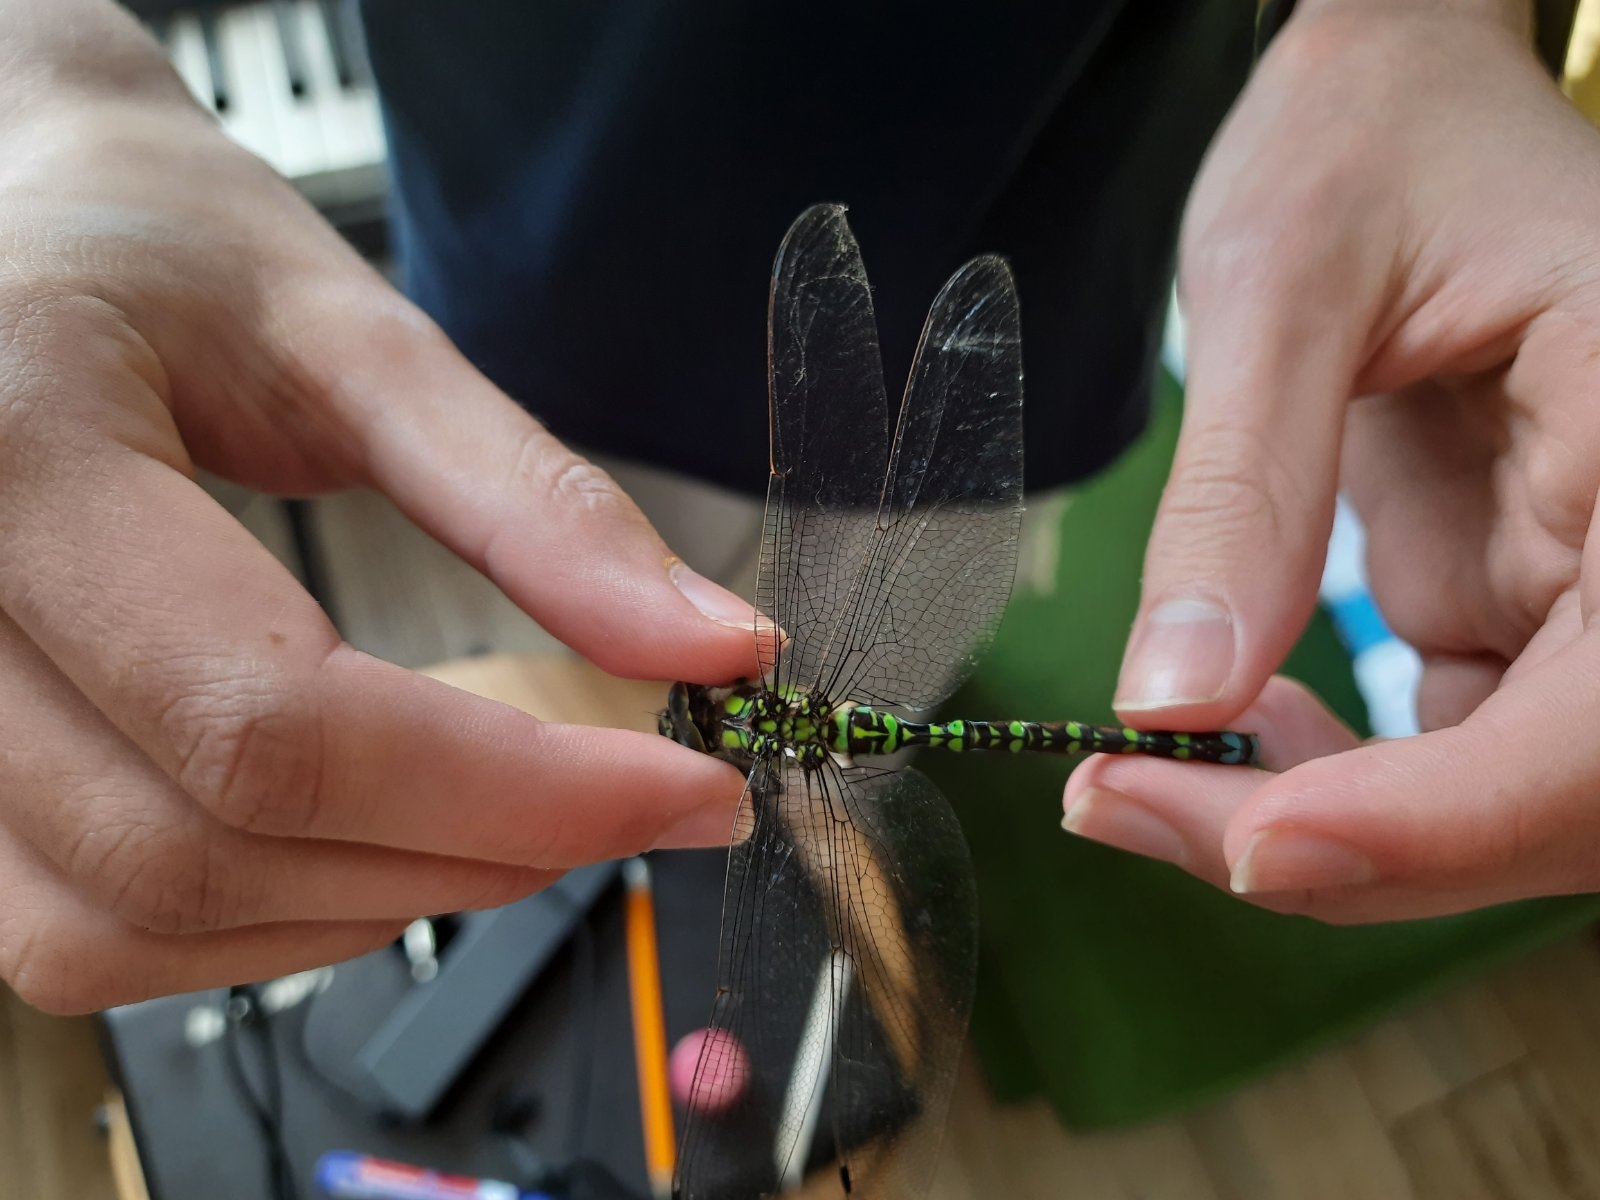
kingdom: Animalia
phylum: Arthropoda
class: Insecta
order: Odonata
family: Aeshnidae
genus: Aeshna
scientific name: Aeshna cyanea
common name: Southern hawker
